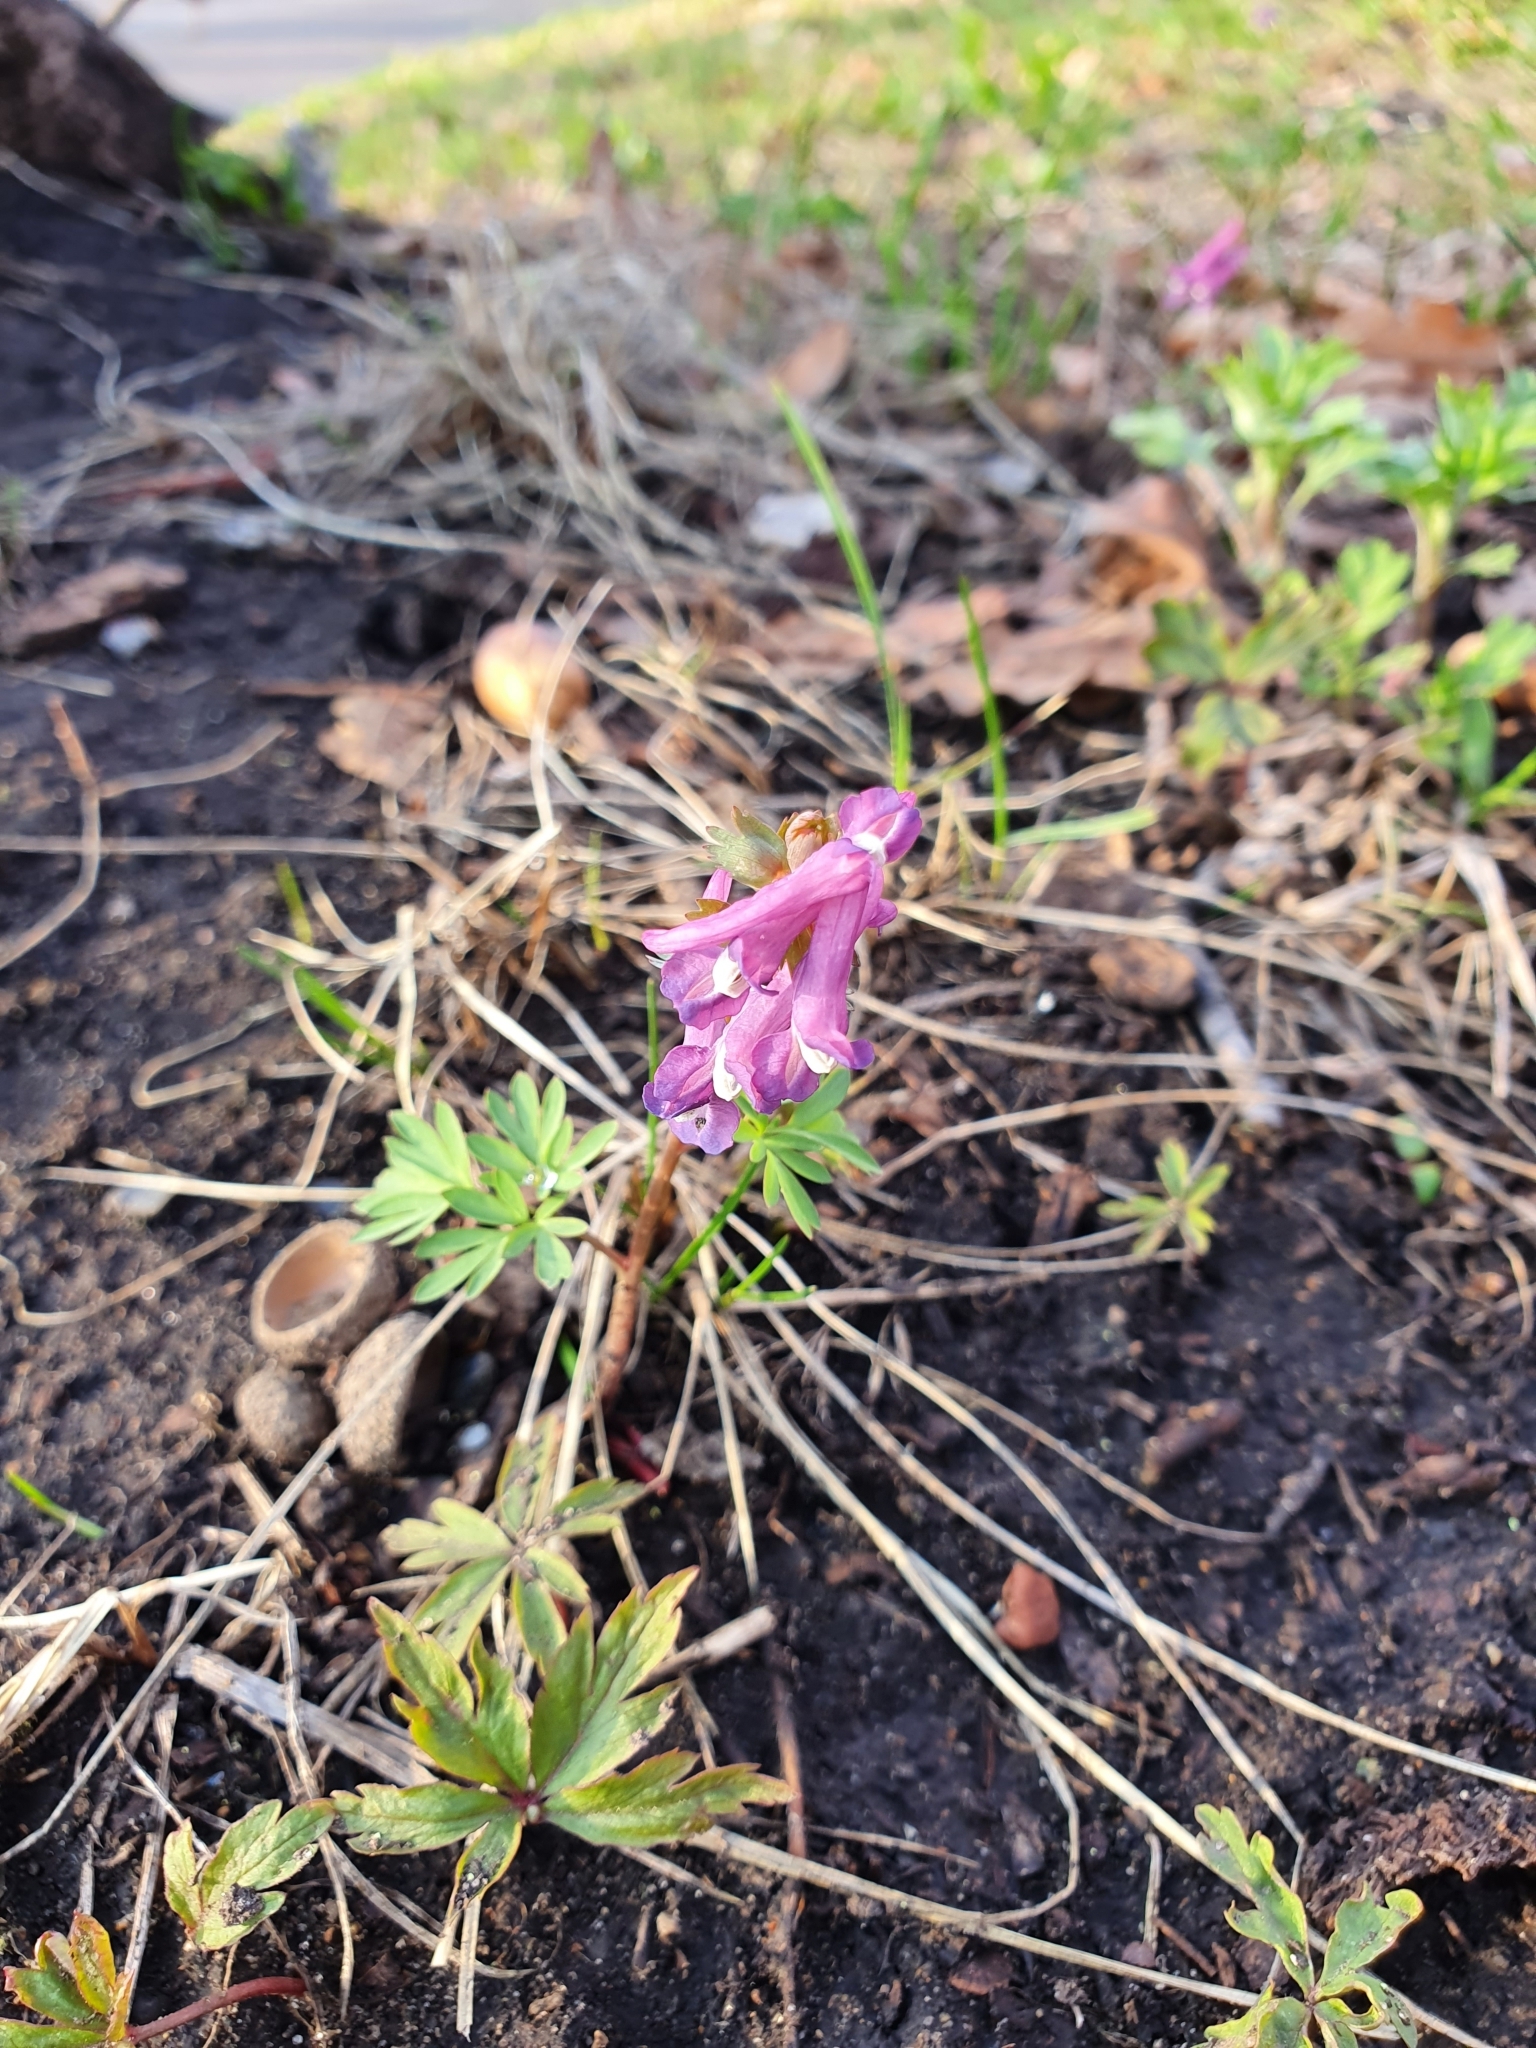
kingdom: Plantae
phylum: Tracheophyta
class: Magnoliopsida
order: Ranunculales
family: Papaveraceae
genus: Corydalis
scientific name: Corydalis solida
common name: Bird-in-a-bush
